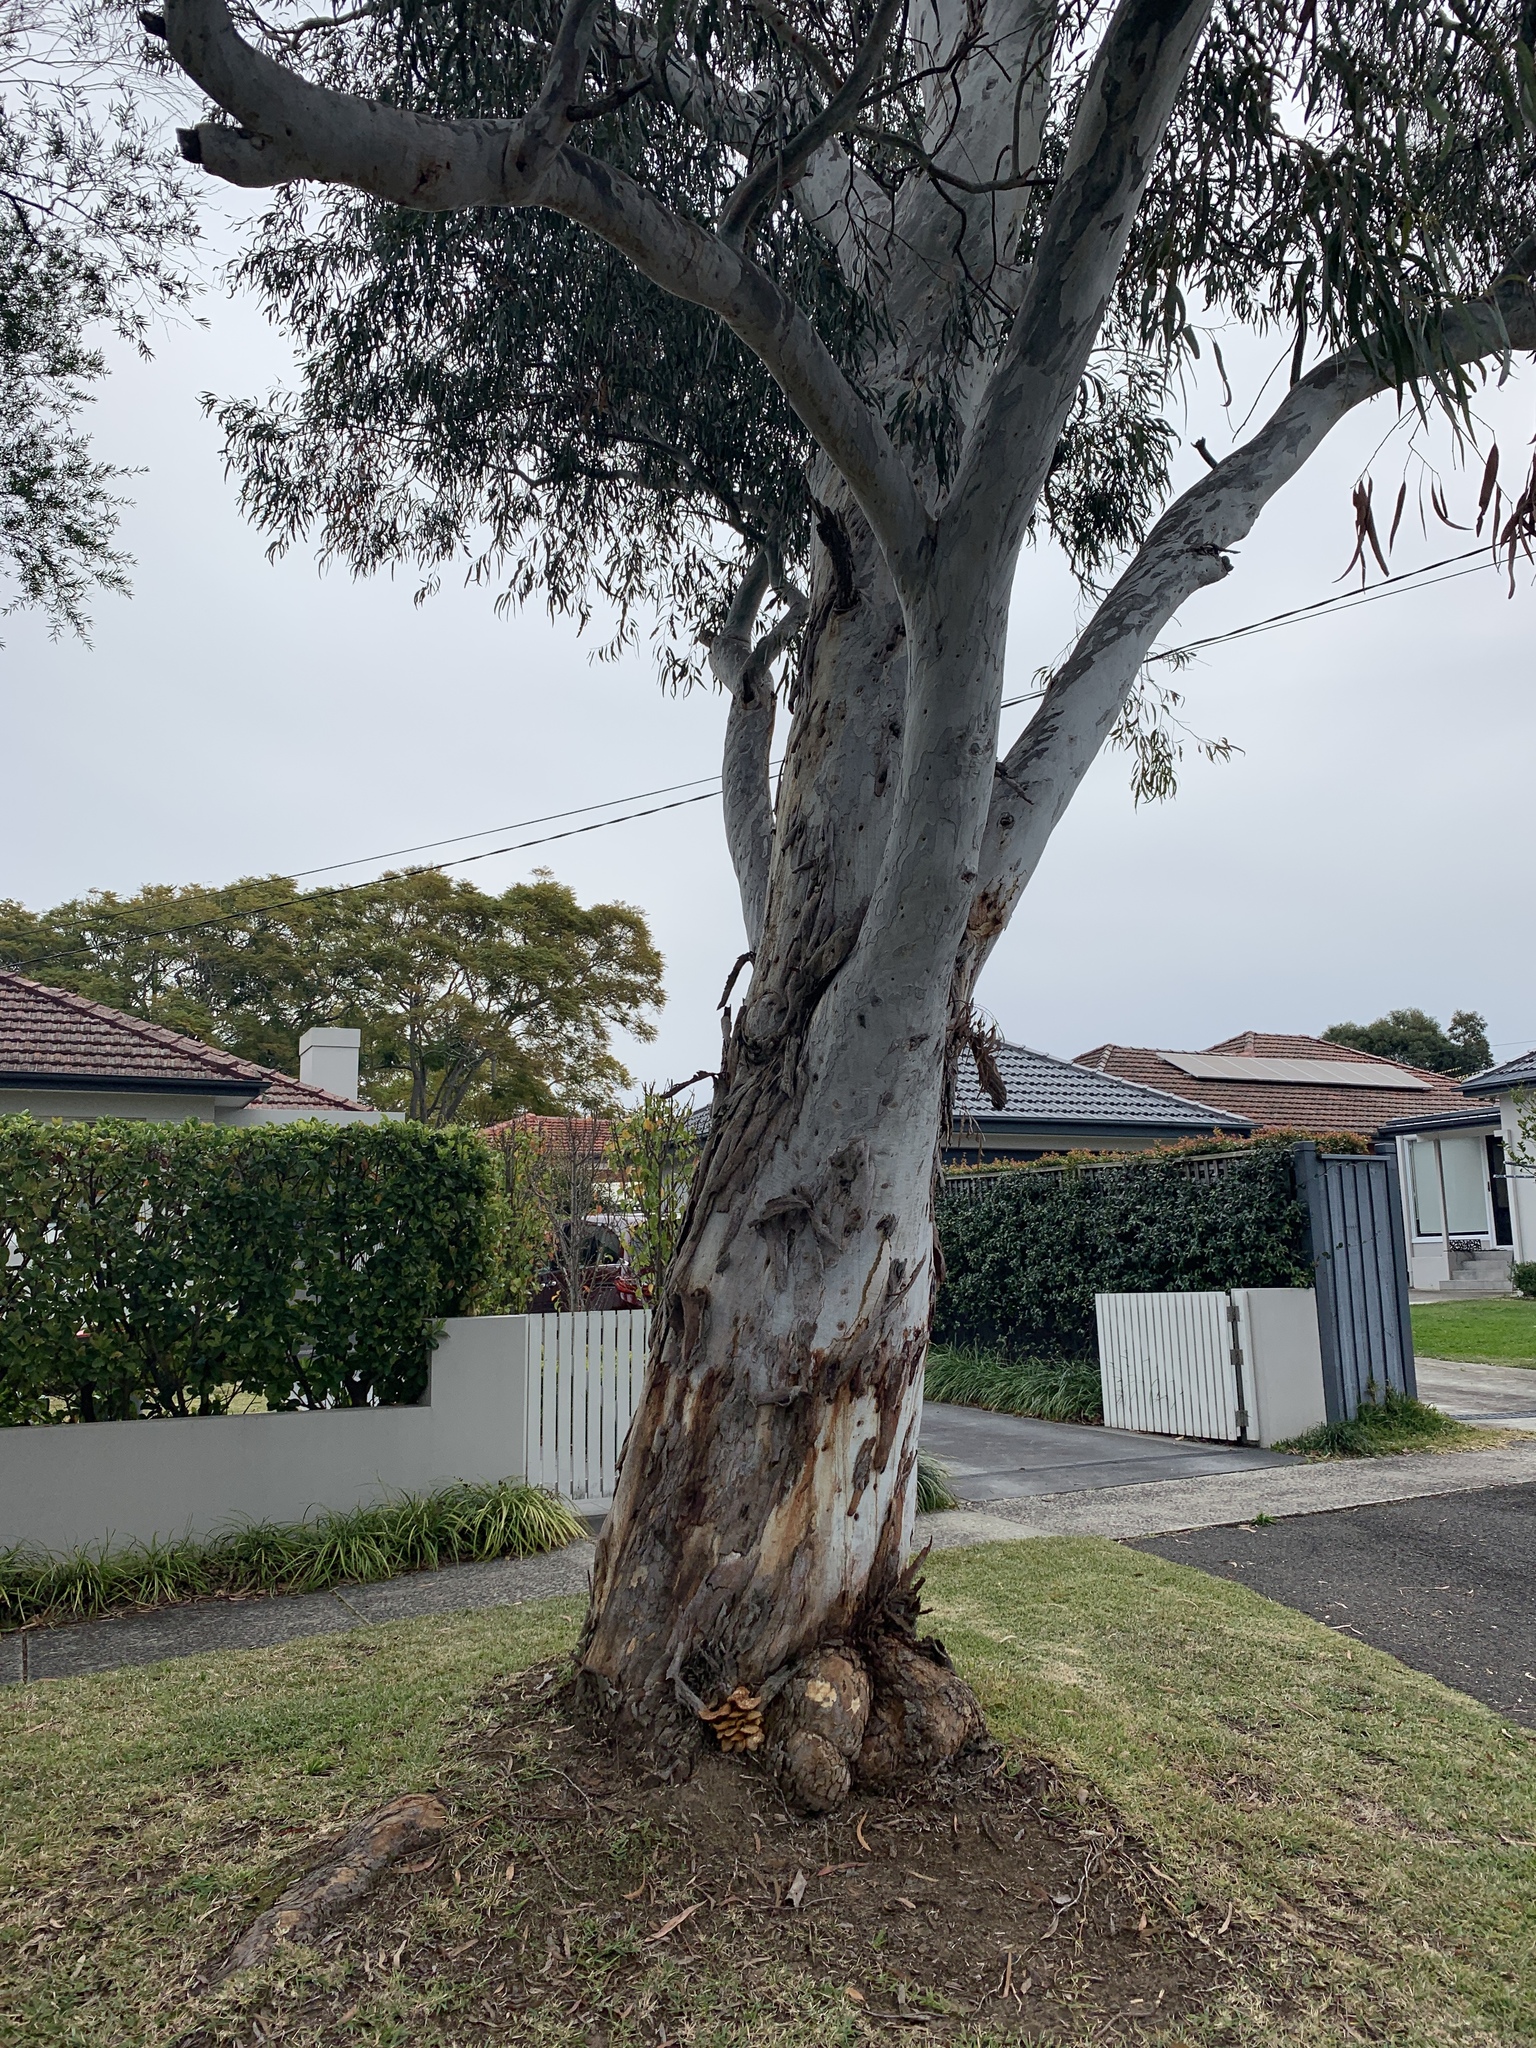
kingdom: Fungi
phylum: Basidiomycota
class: Agaricomycetes
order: Agaricales
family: Hymenogastraceae
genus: Gymnopilus
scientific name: Gymnopilus junonius
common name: Spectacular rustgill
